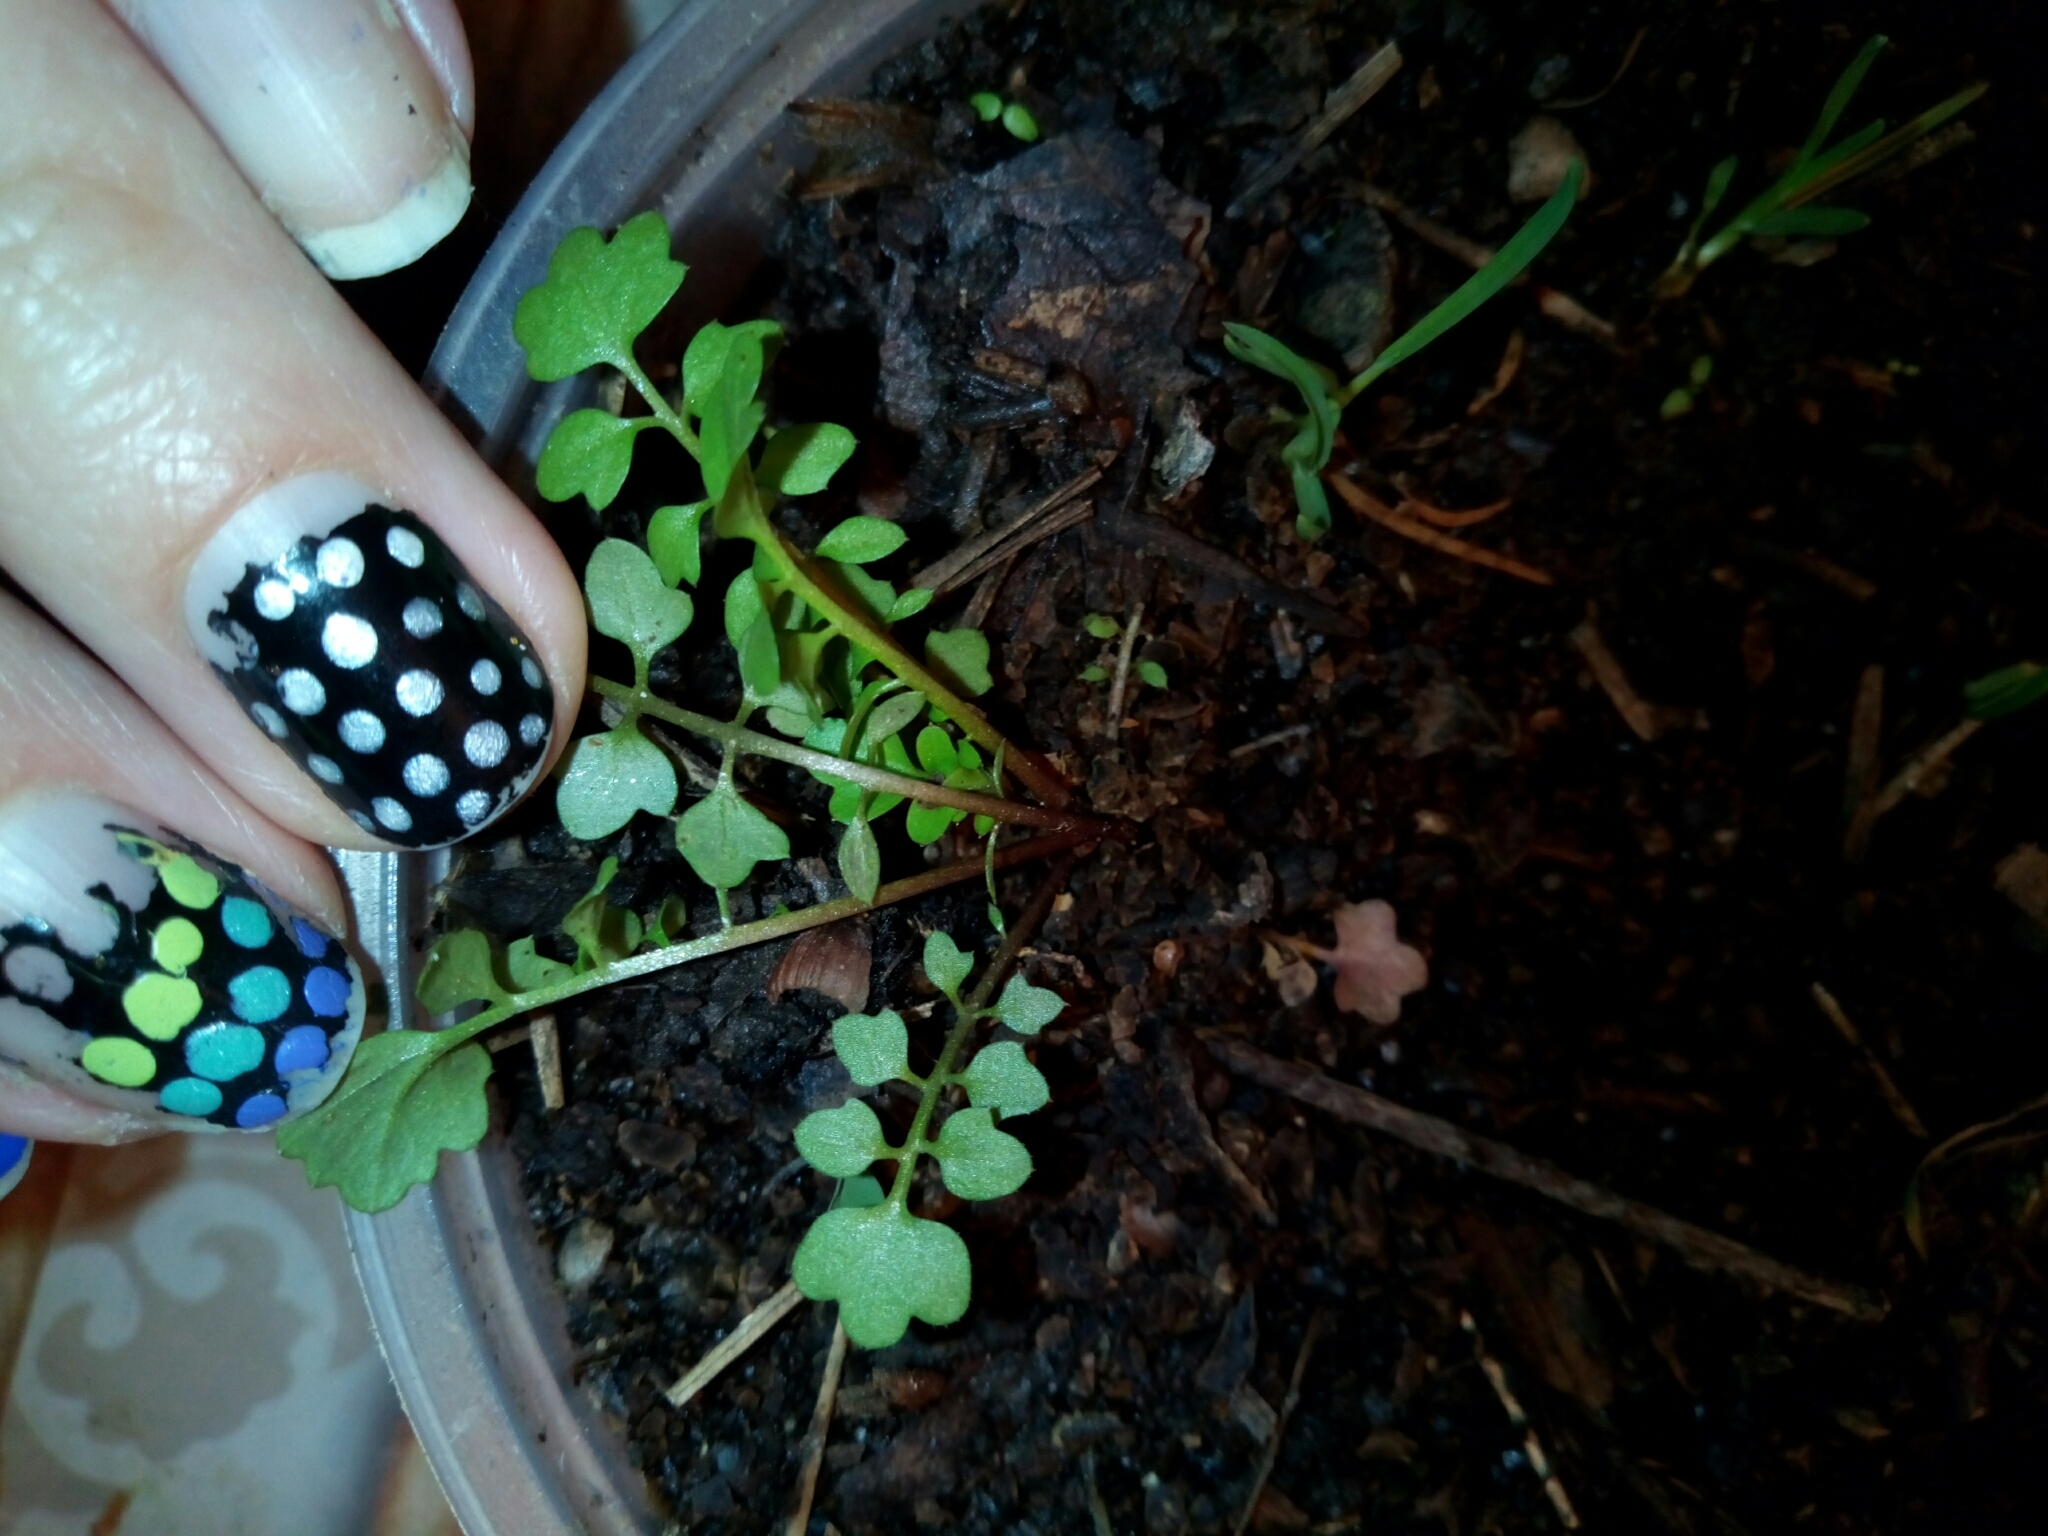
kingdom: Plantae
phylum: Tracheophyta
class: Magnoliopsida
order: Brassicales
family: Brassicaceae
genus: Cardamine
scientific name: Cardamine occulta
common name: Asian wavy bittercress
